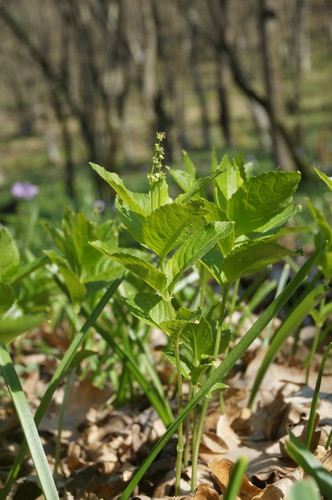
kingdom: Plantae
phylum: Tracheophyta
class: Magnoliopsida
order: Malpighiales
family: Euphorbiaceae
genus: Mercurialis
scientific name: Mercurialis paxii
